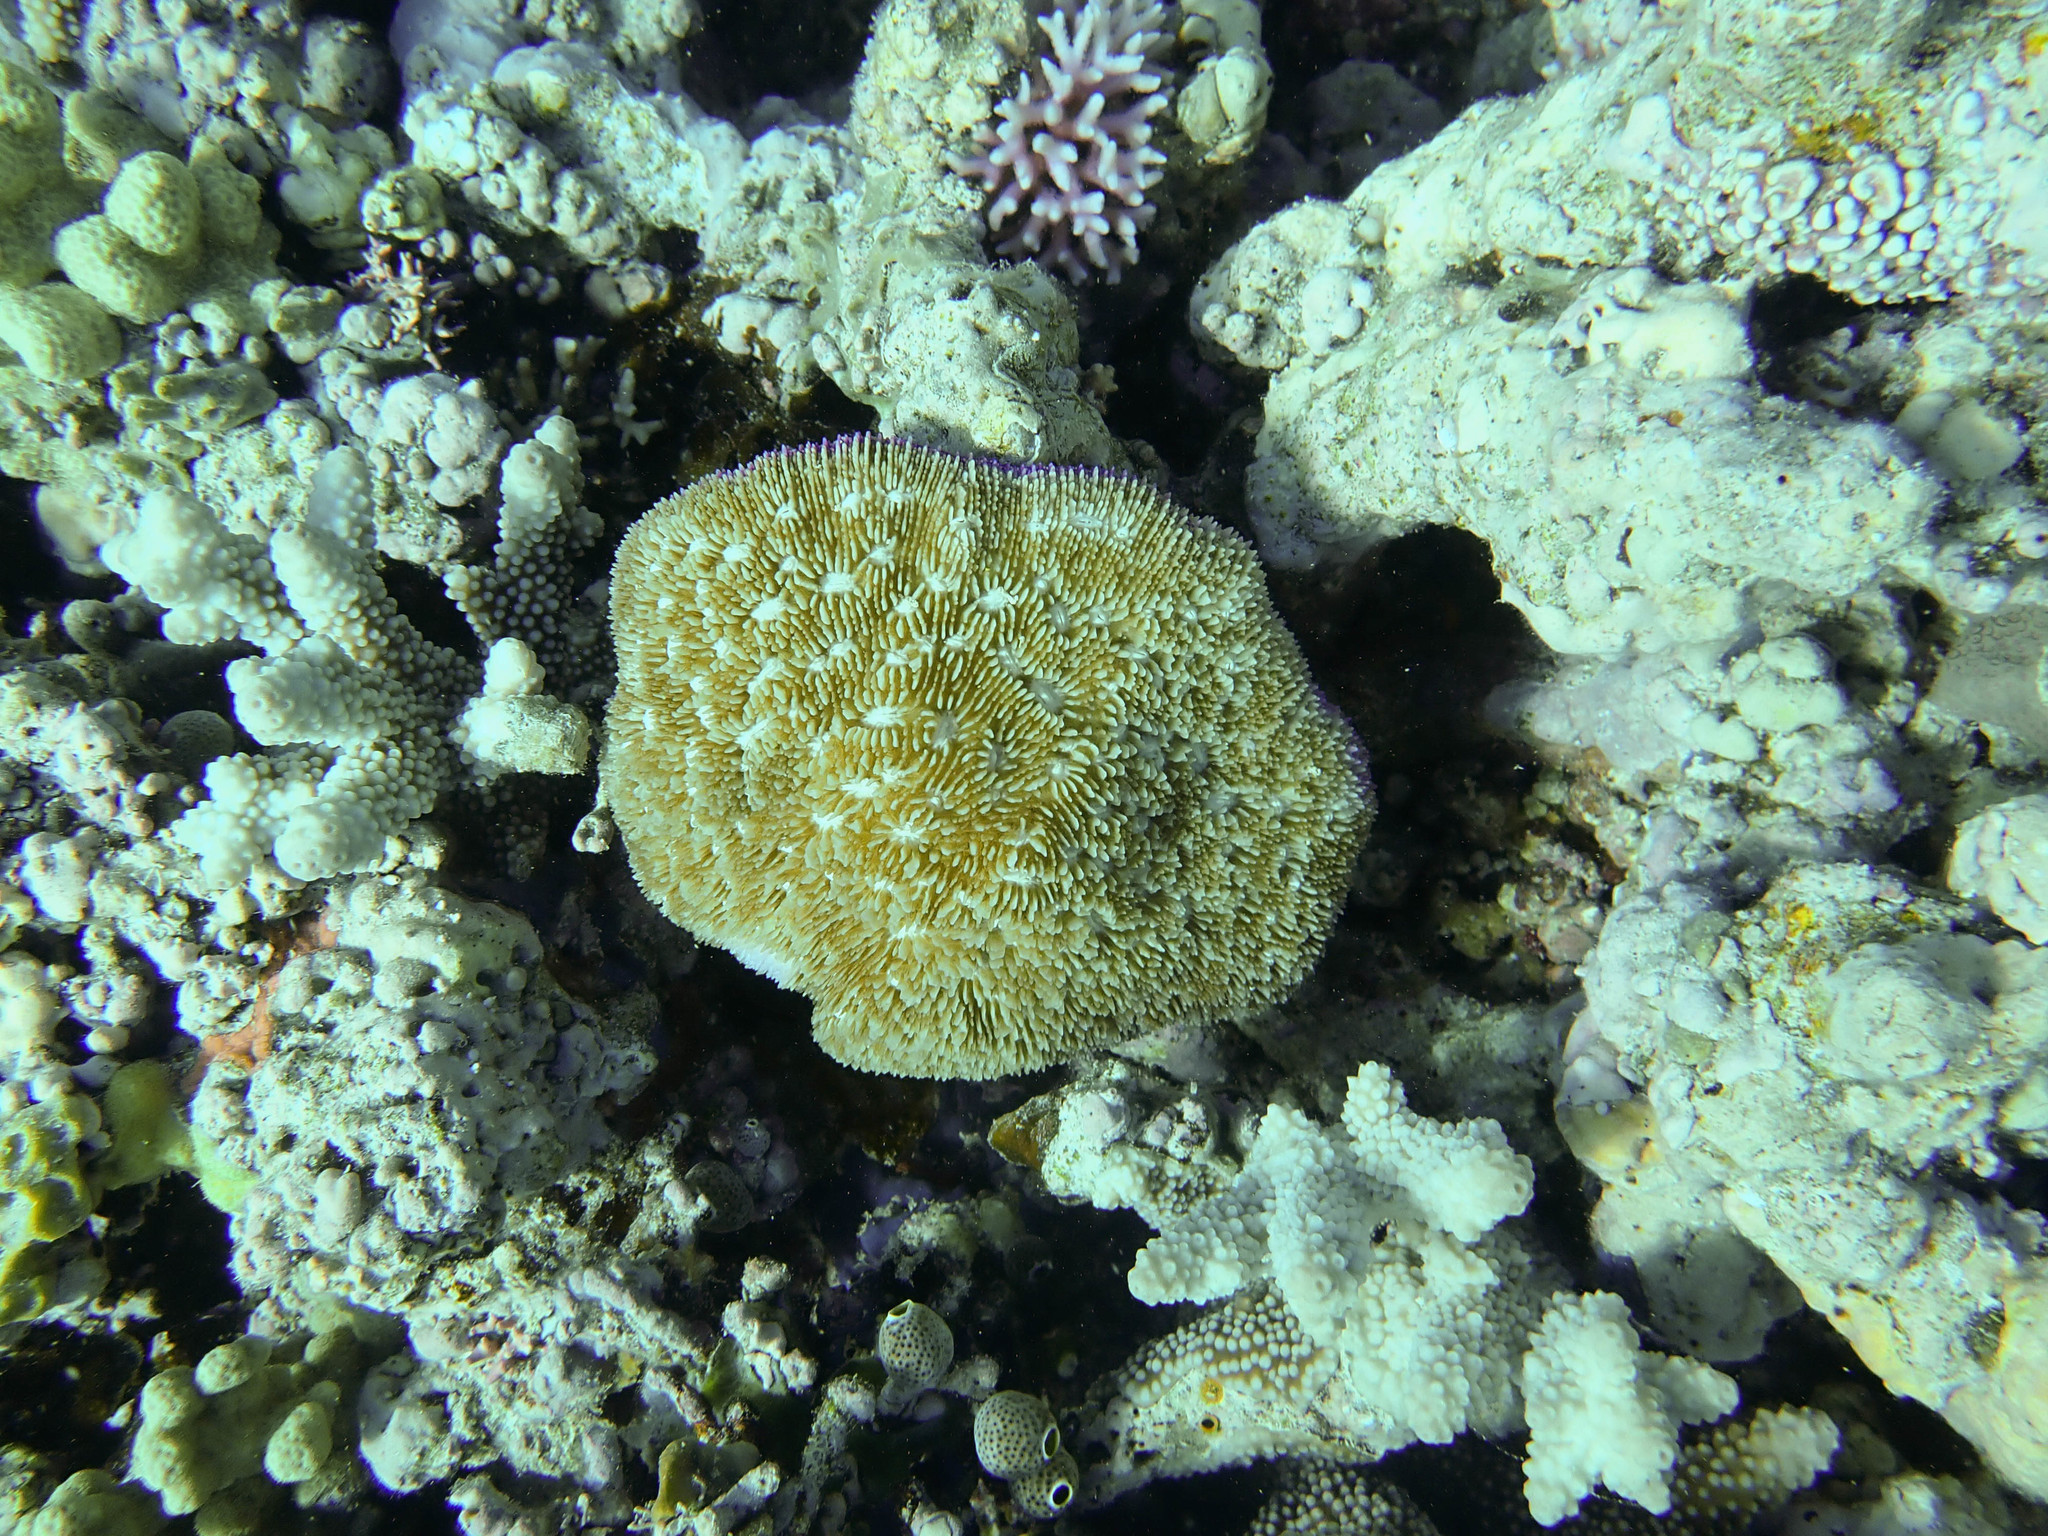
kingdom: Animalia
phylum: Cnidaria
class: Anthozoa
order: Scleractinia
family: Fungiidae
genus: Halomitra
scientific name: Halomitra pileus
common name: Bowl coral
